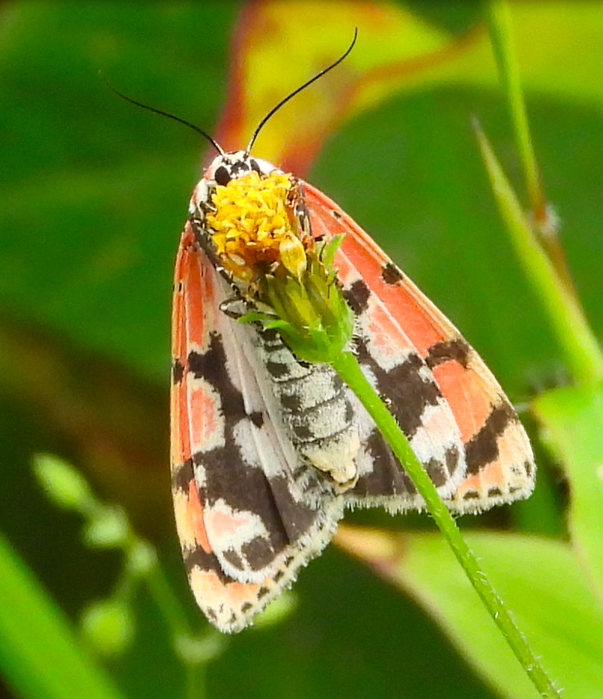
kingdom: Animalia
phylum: Arthropoda
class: Insecta
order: Lepidoptera
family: Erebidae
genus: Utetheisa
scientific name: Utetheisa ornatrix
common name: Beautiful utetheisa
